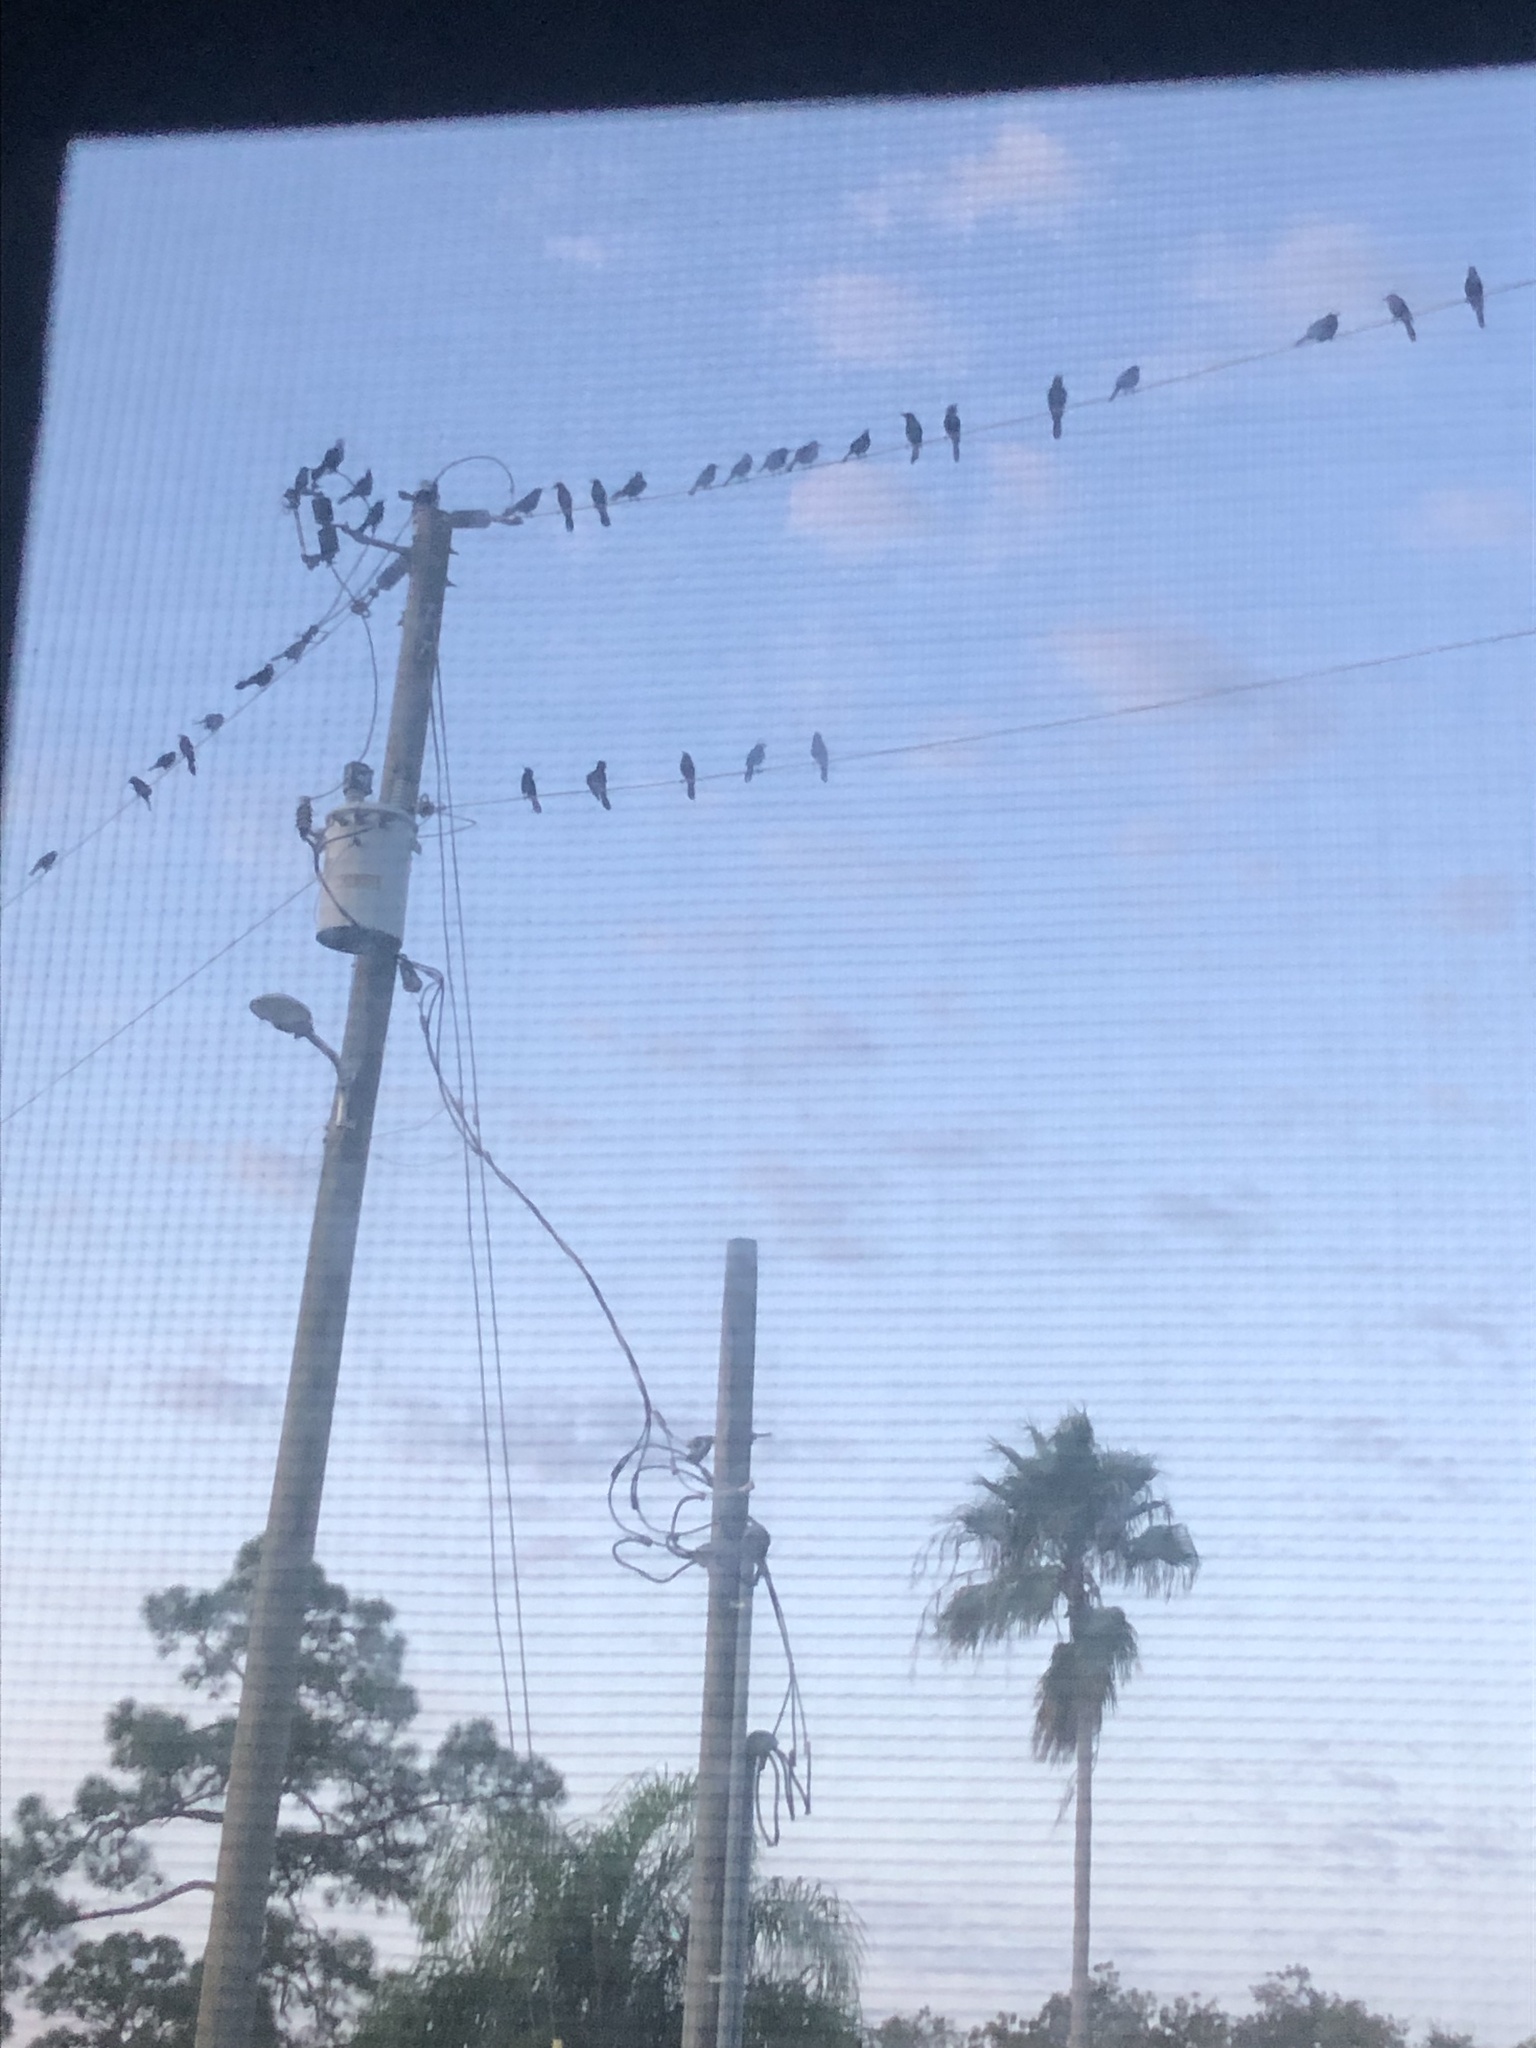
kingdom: Animalia
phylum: Chordata
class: Aves
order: Passeriformes
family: Icteridae
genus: Quiscalus
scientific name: Quiscalus quiscula
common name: Common grackle
